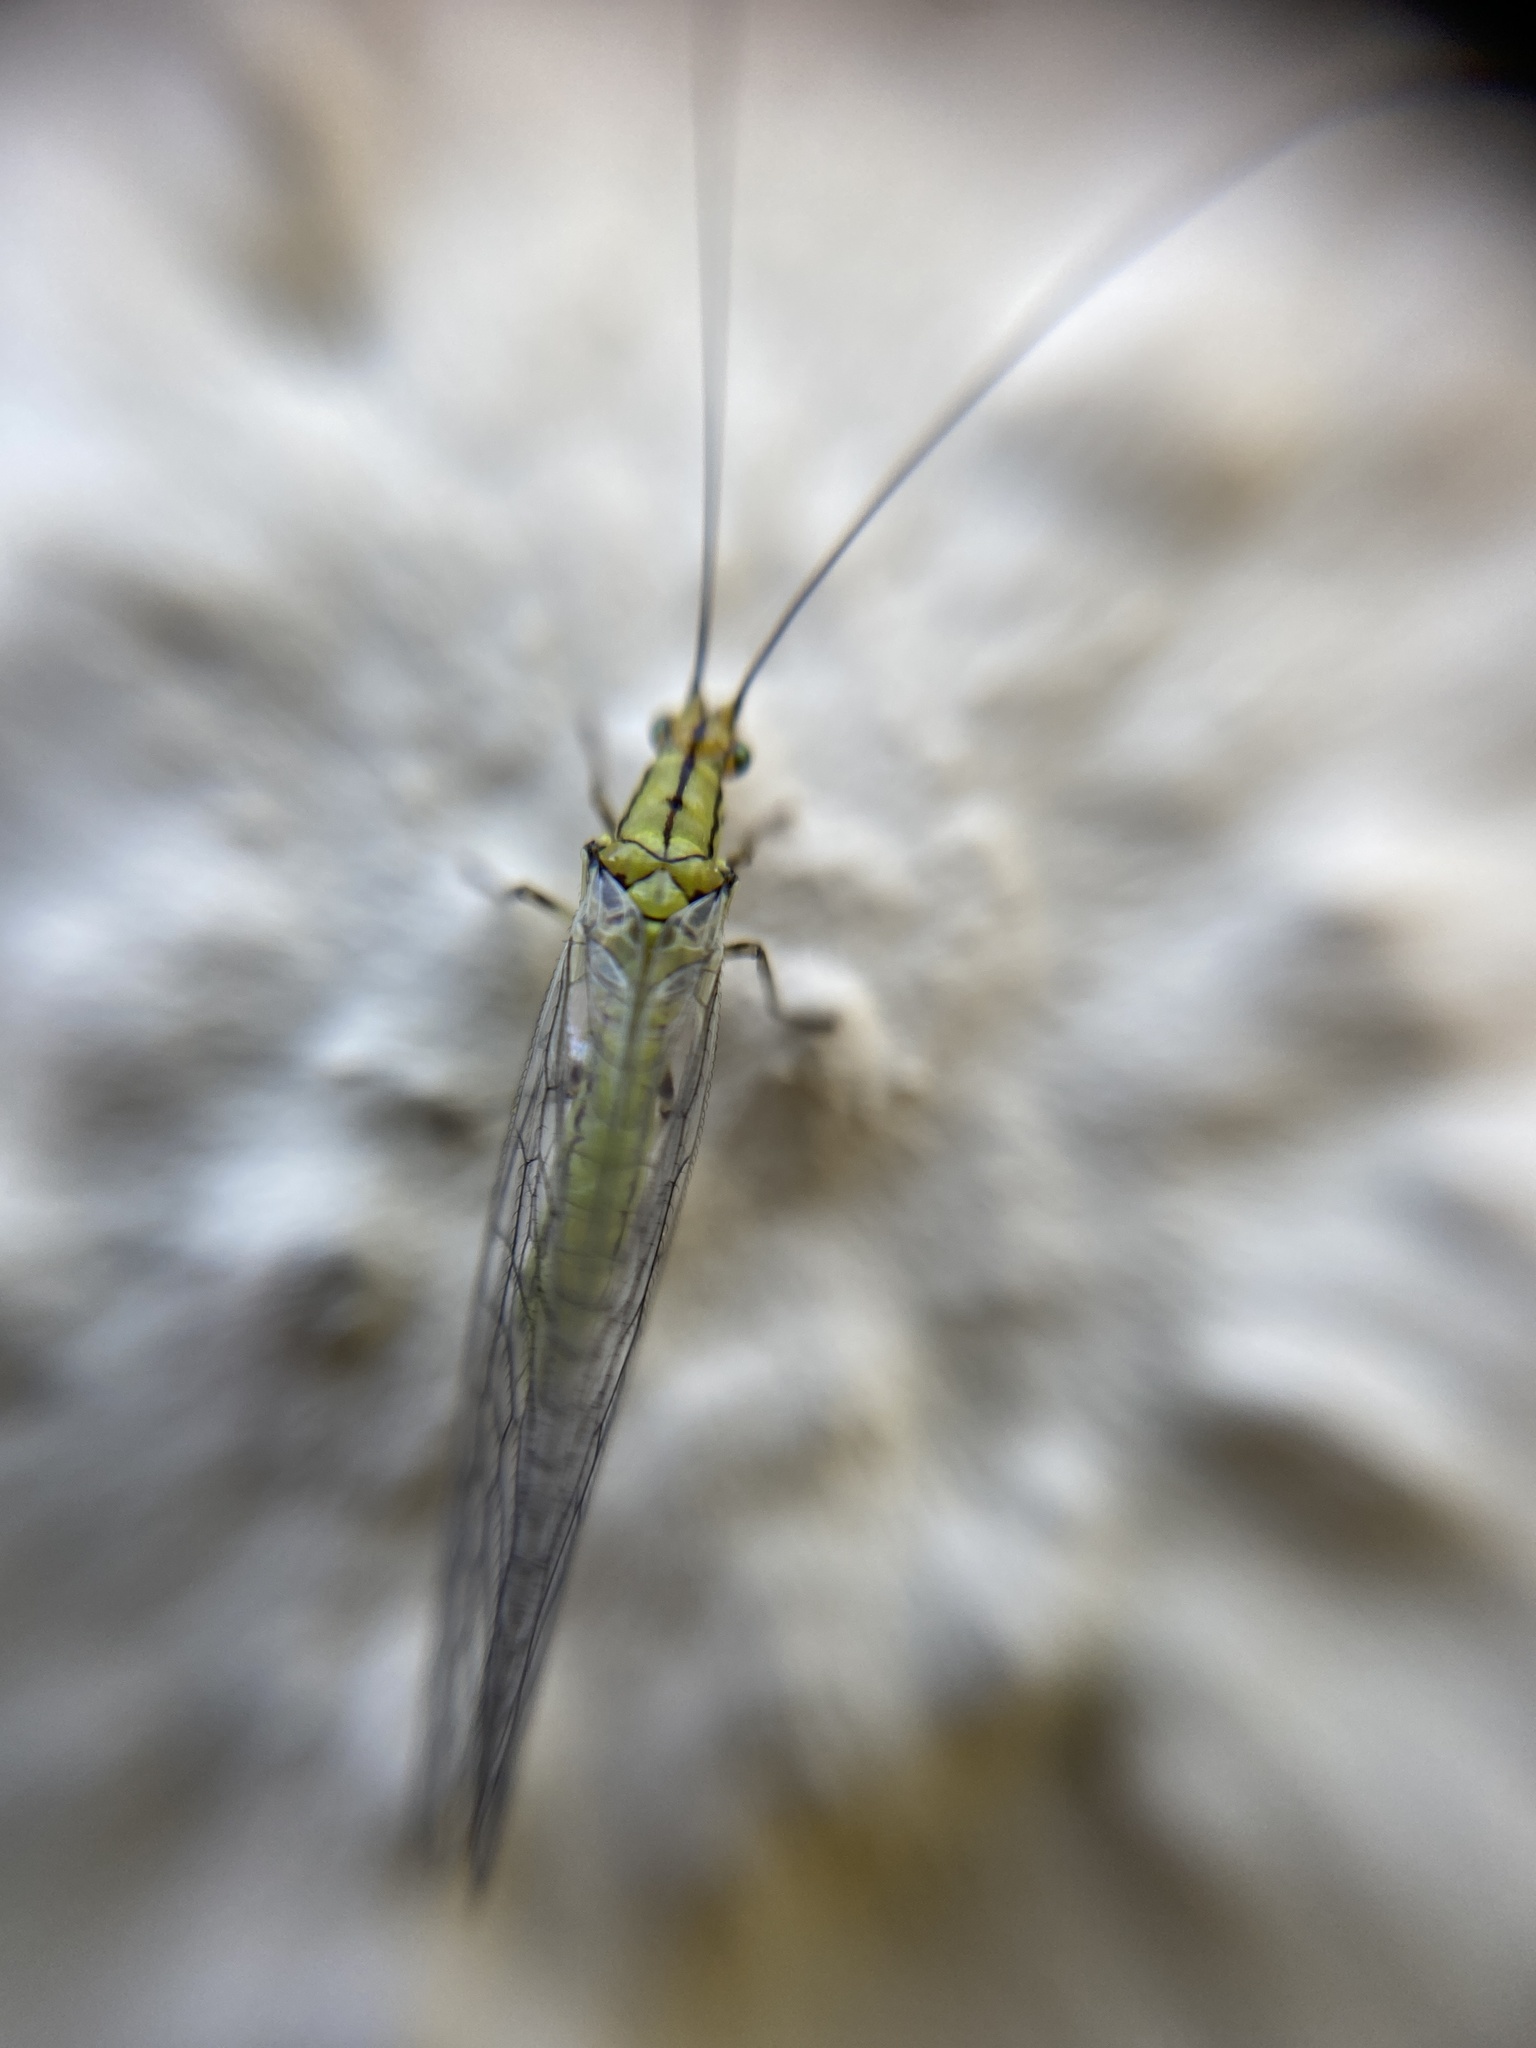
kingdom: Animalia
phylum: Arthropoda
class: Insecta
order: Neuroptera
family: Chrysopidae
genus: Hypochrysa
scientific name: Hypochrysa elegans
